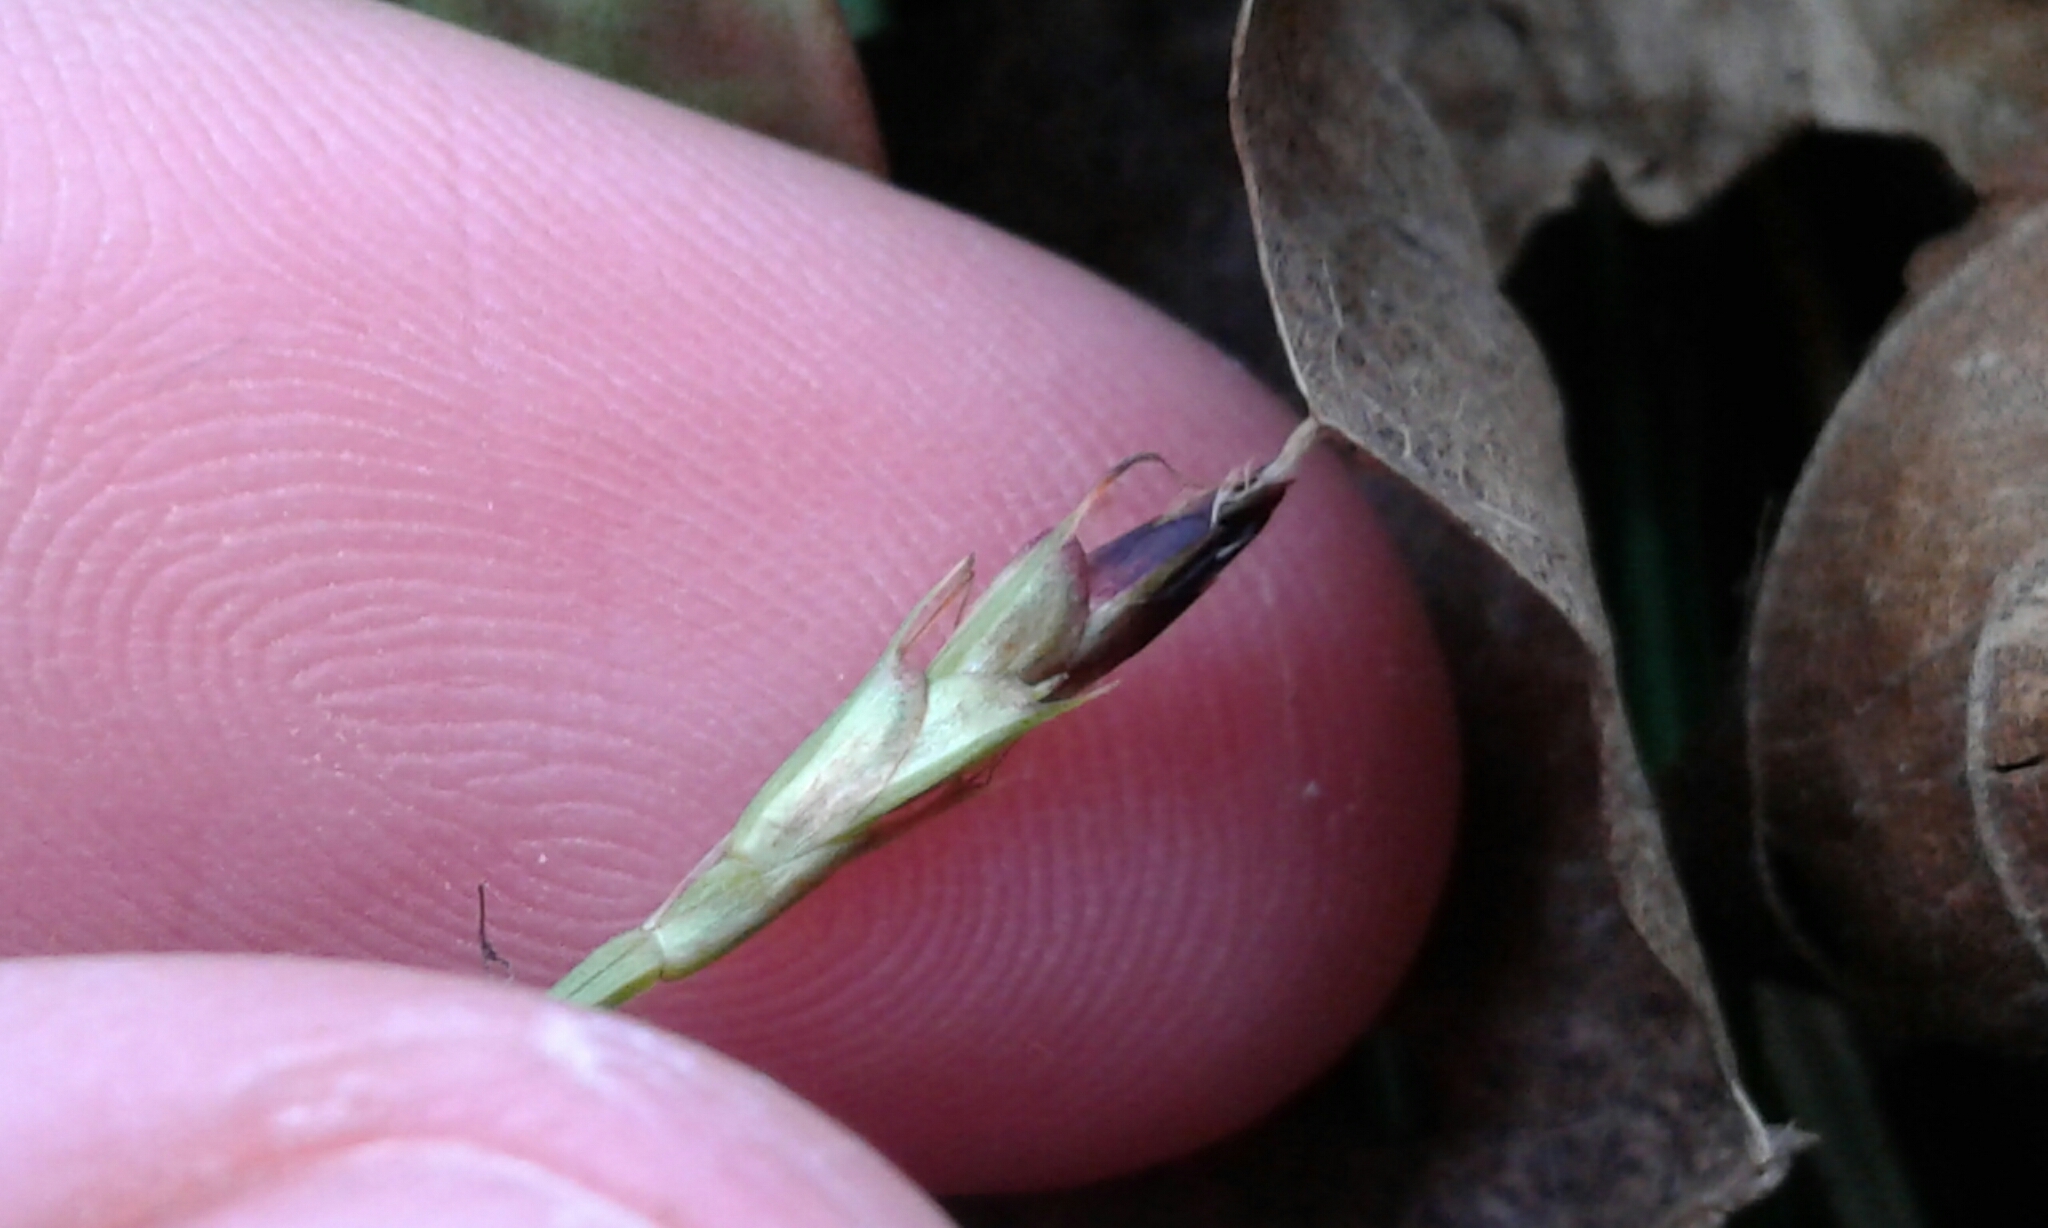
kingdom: Plantae
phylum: Tracheophyta
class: Liliopsida
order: Poales
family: Cyperaceae
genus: Carex
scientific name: Carex pedunculata
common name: Pedunculate sedge
